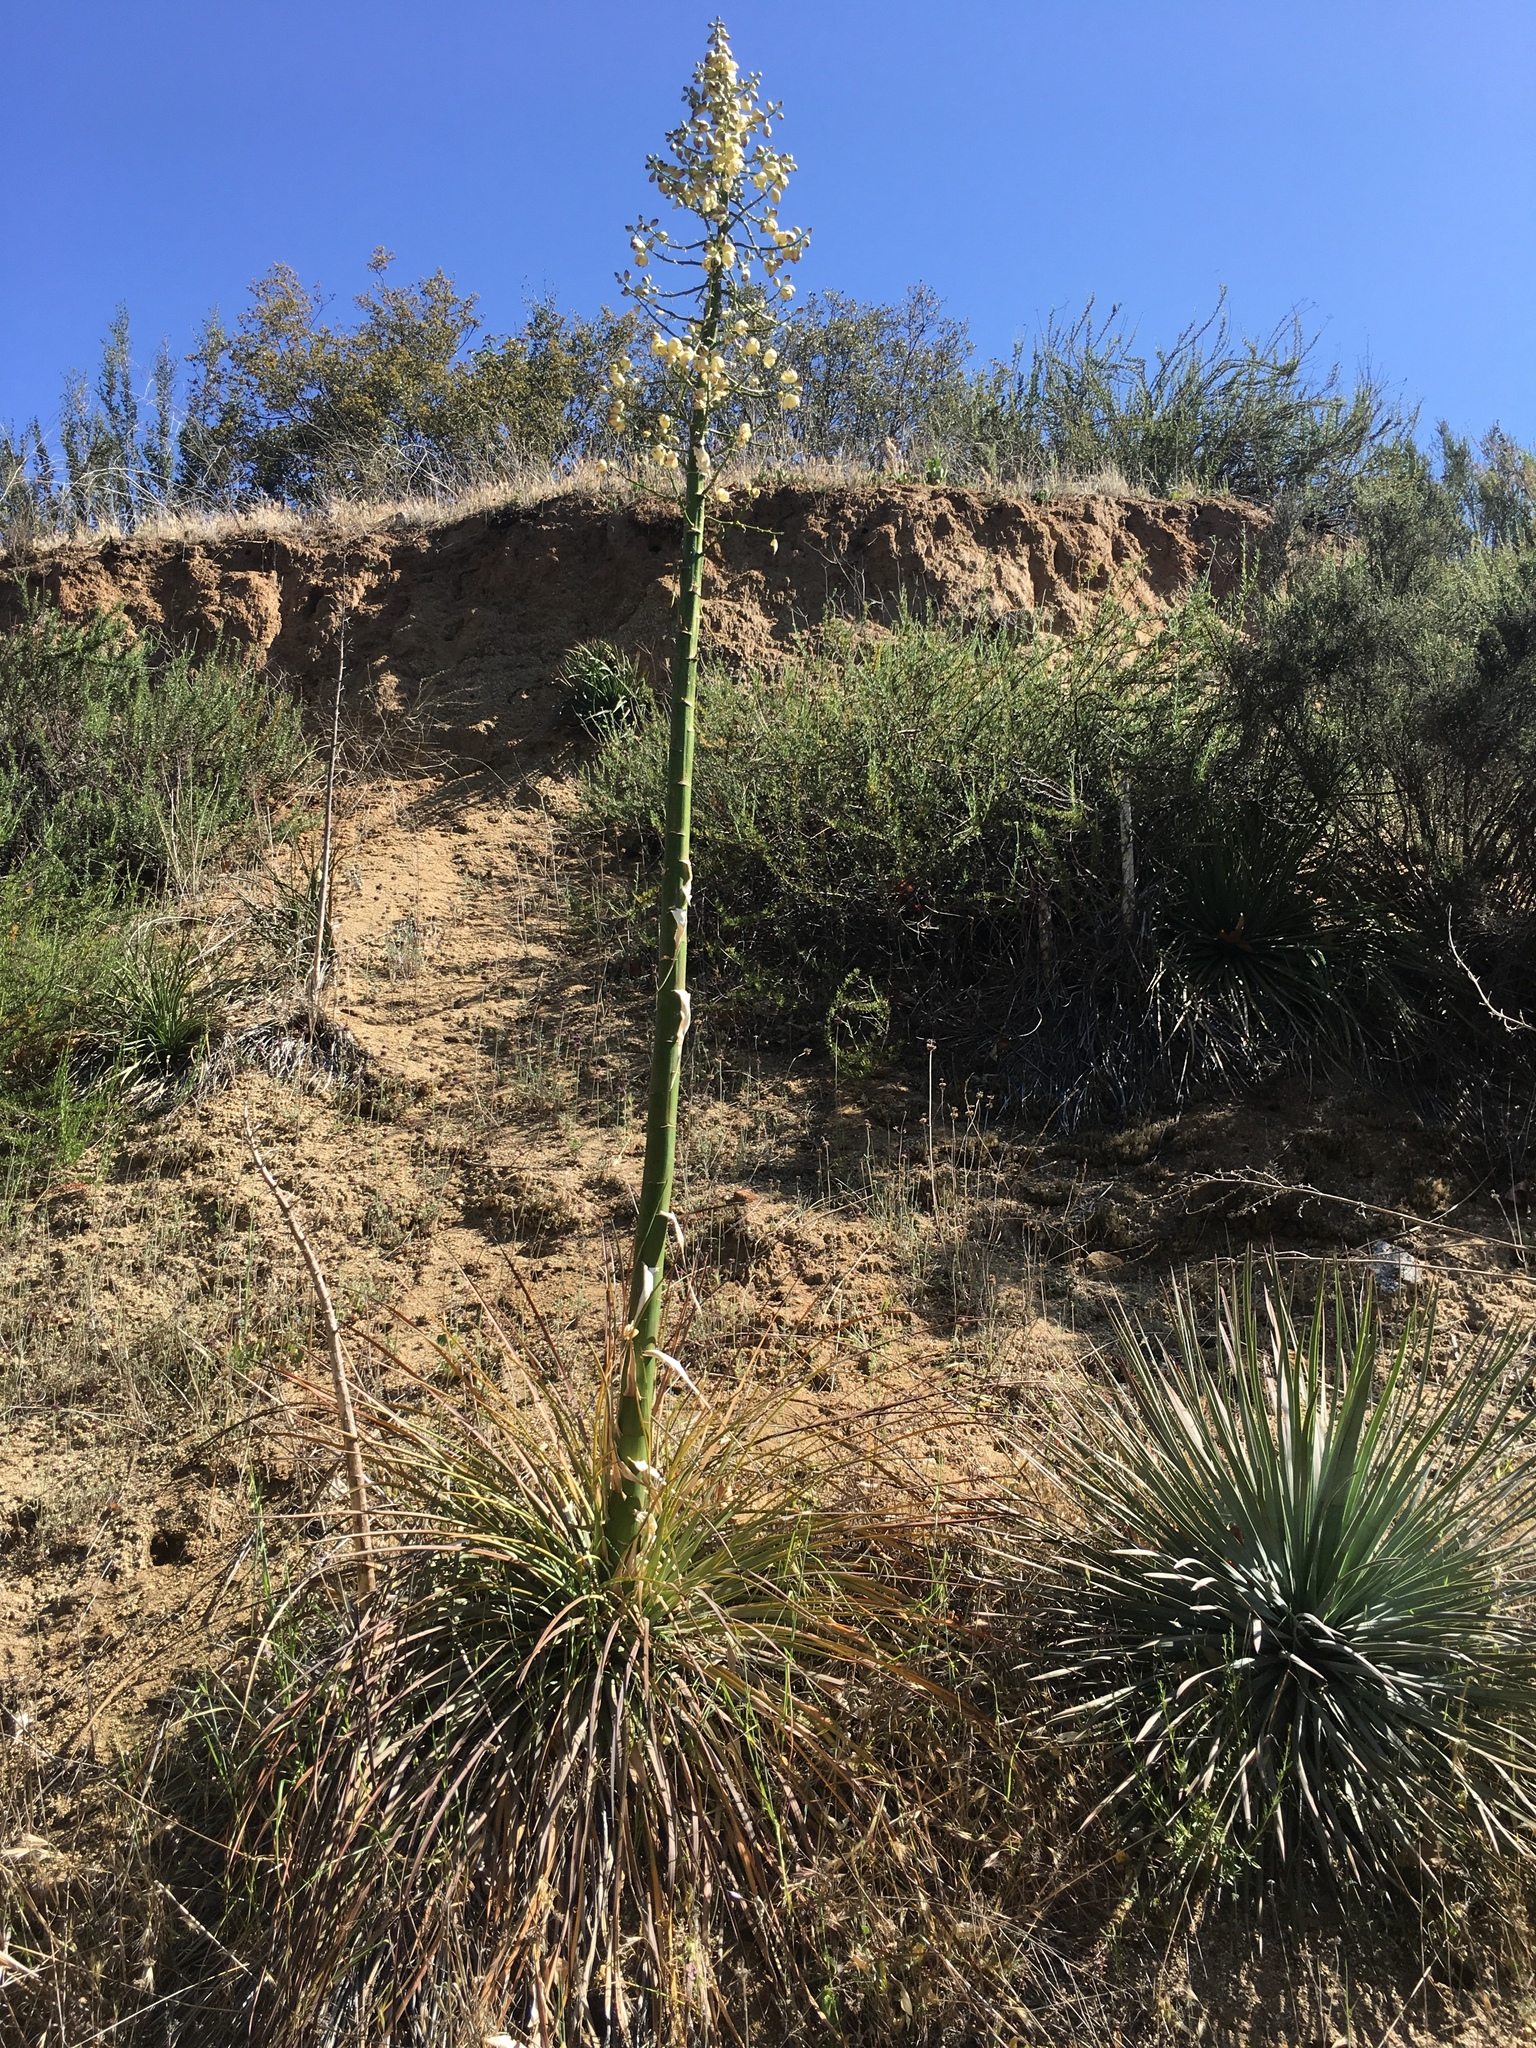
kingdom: Plantae
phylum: Tracheophyta
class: Liliopsida
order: Asparagales
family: Asparagaceae
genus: Hesperoyucca
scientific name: Hesperoyucca whipplei
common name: Our lord's-candle
